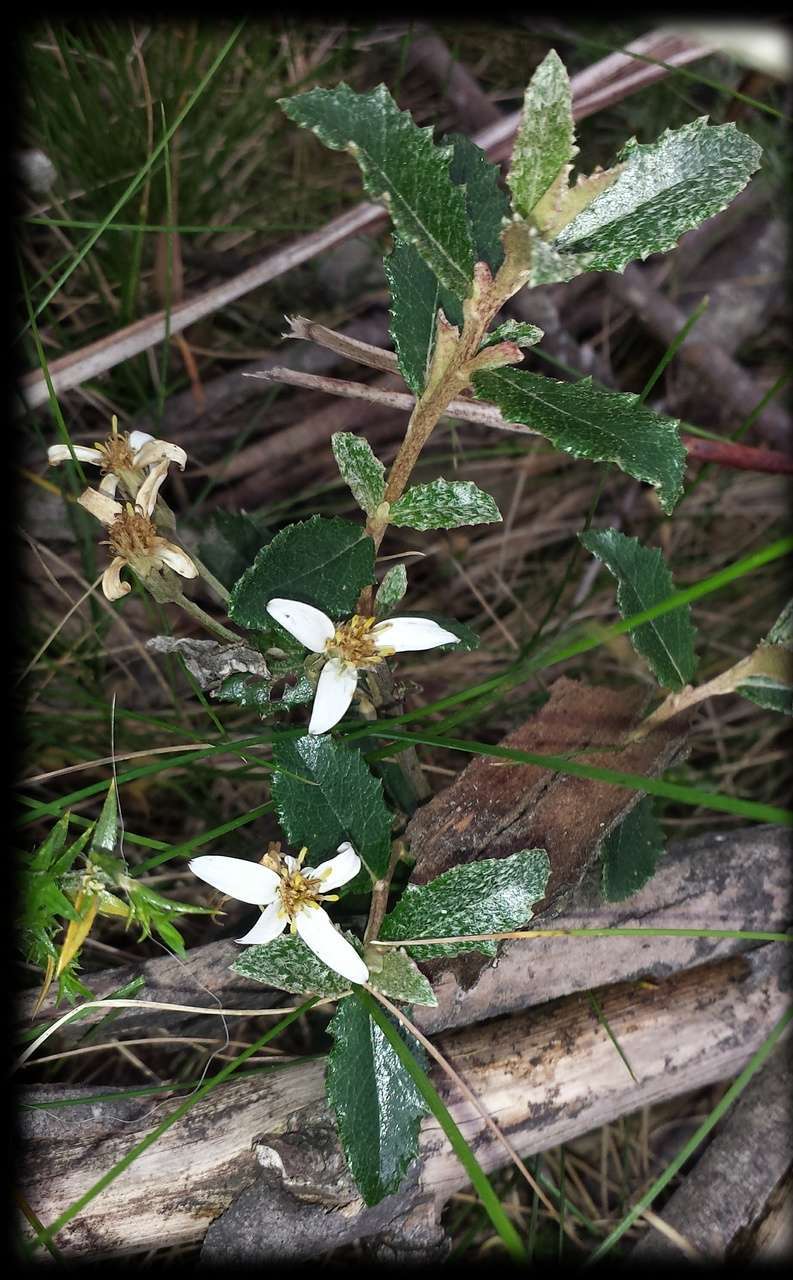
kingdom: Plantae
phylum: Tracheophyta
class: Magnoliopsida
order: Asterales
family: Asteraceae
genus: Olearia
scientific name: Olearia myrsinoides
